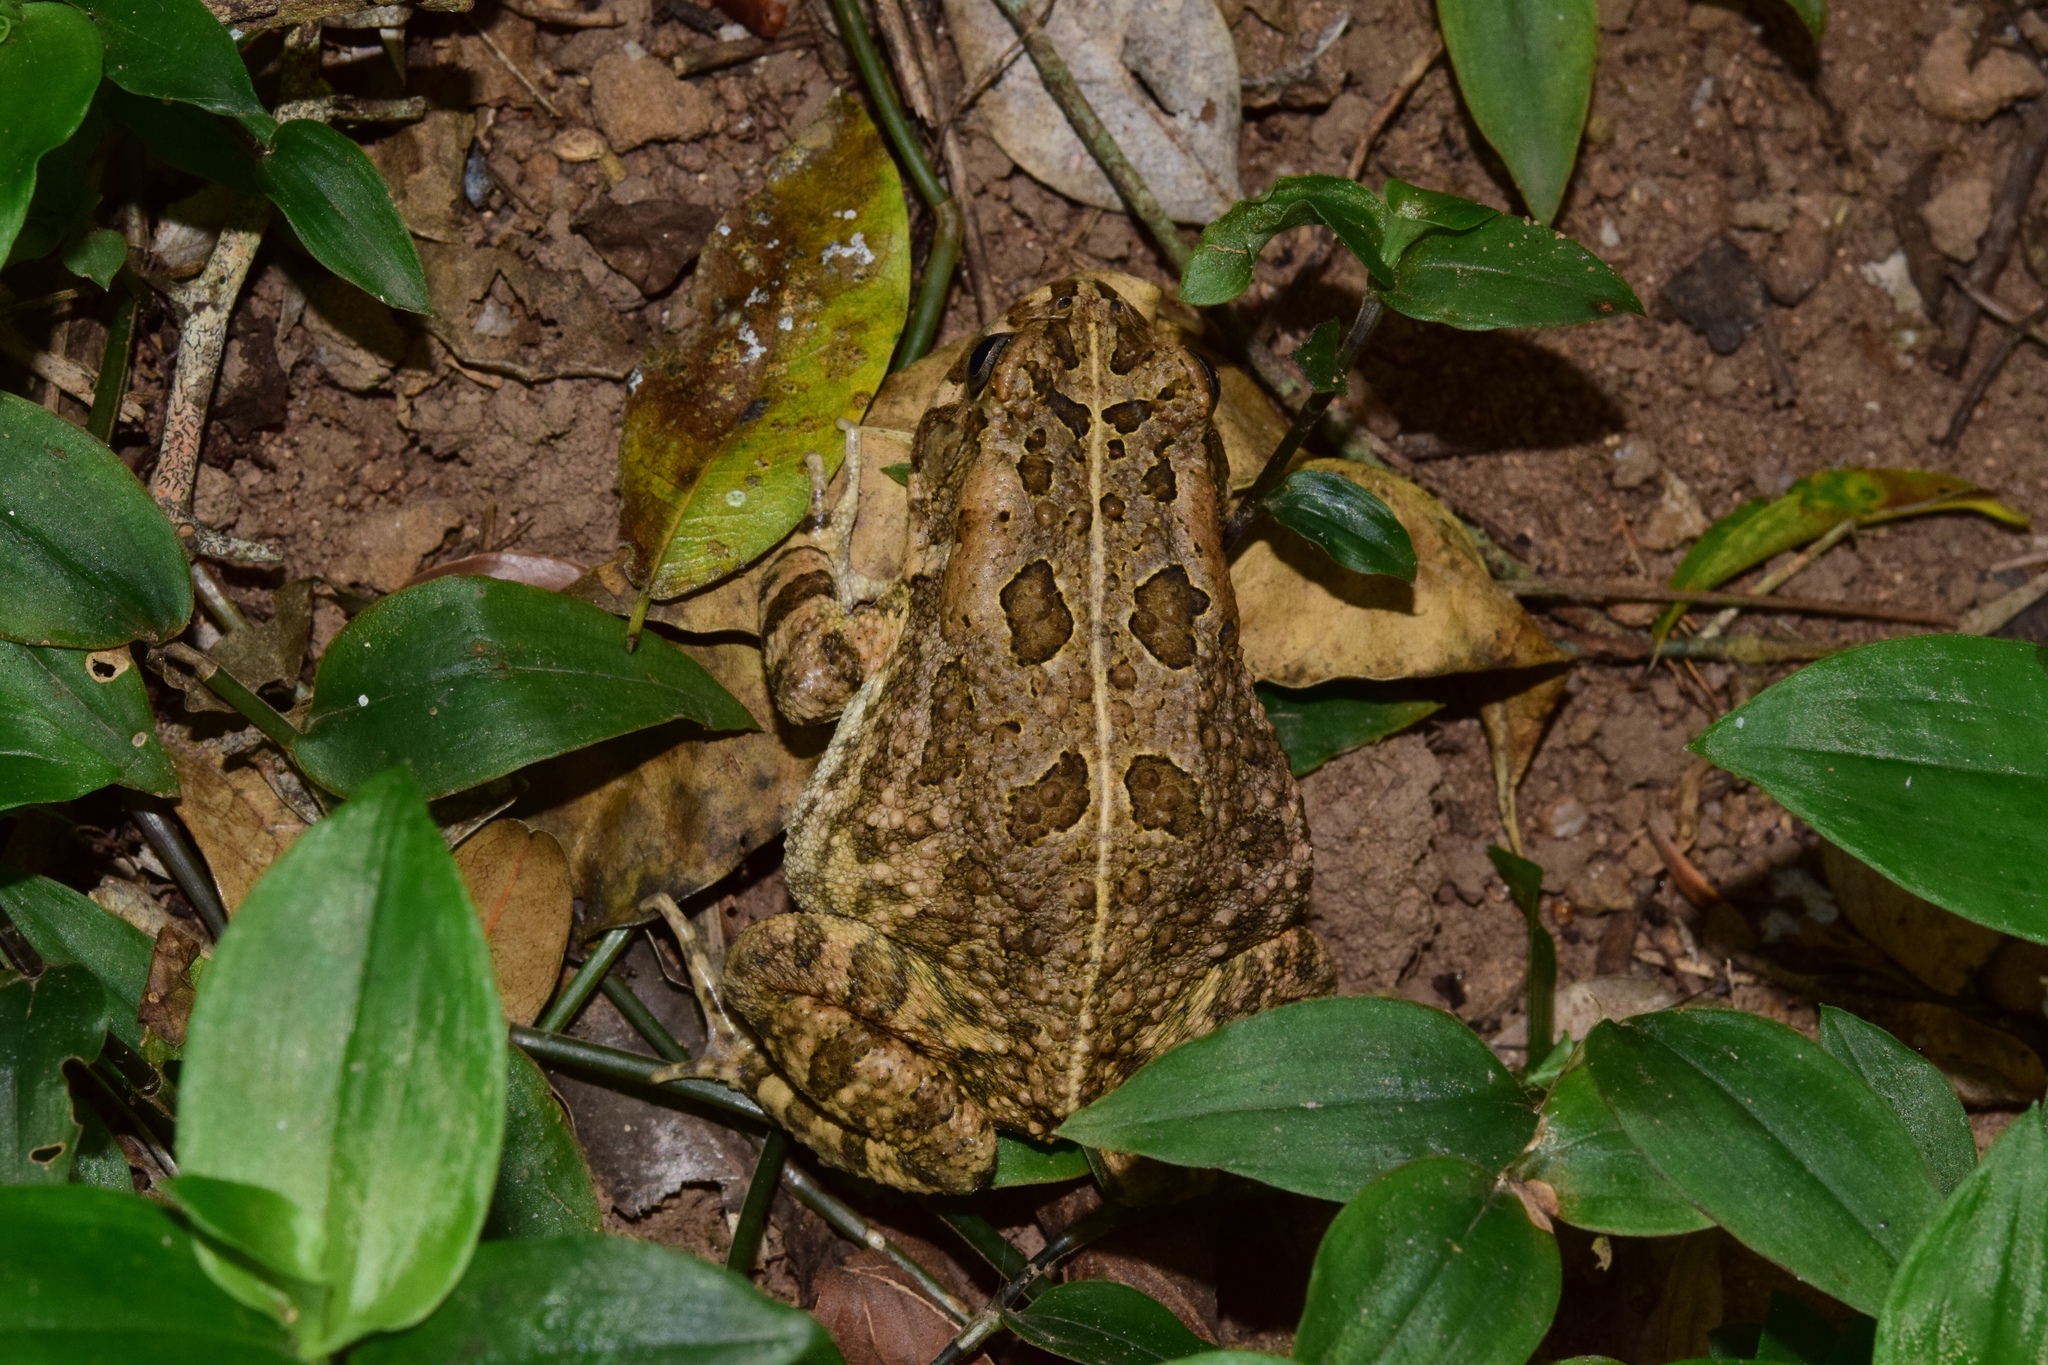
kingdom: Animalia
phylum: Chordata
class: Amphibia
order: Anura
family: Bufonidae
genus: Sclerophrys
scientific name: Sclerophrys gutturalis
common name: African common toad
